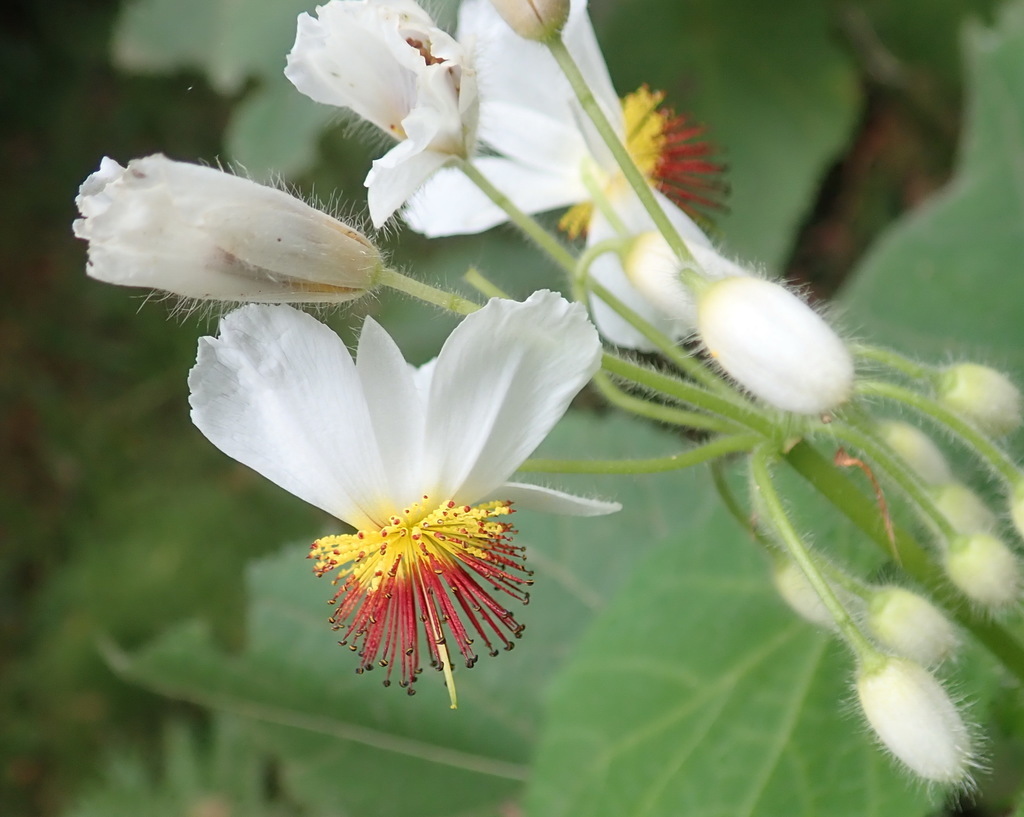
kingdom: Plantae
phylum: Tracheophyta
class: Magnoliopsida
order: Malvales
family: Malvaceae
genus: Sparrmannia
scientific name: Sparrmannia africana
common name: African-hemp
